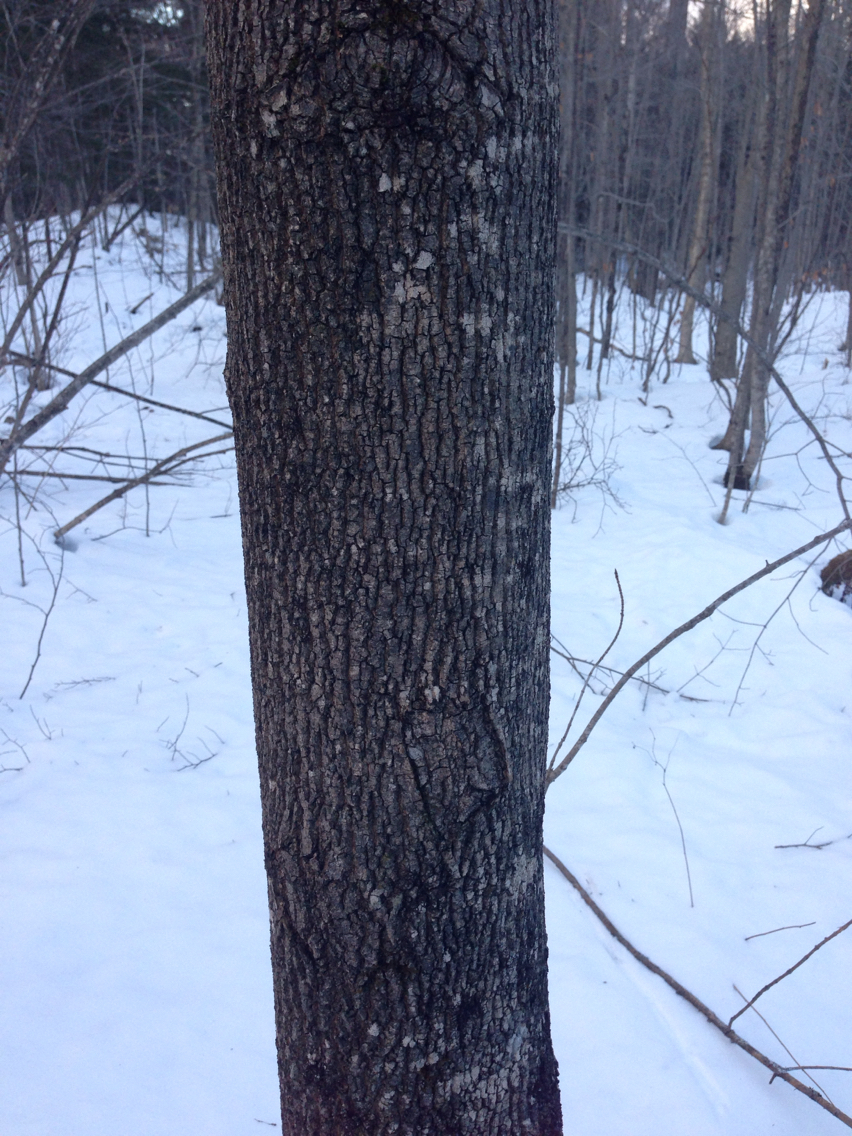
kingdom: Plantae
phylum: Tracheophyta
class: Magnoliopsida
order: Lamiales
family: Oleaceae
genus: Fraxinus
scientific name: Fraxinus americana
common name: White ash
